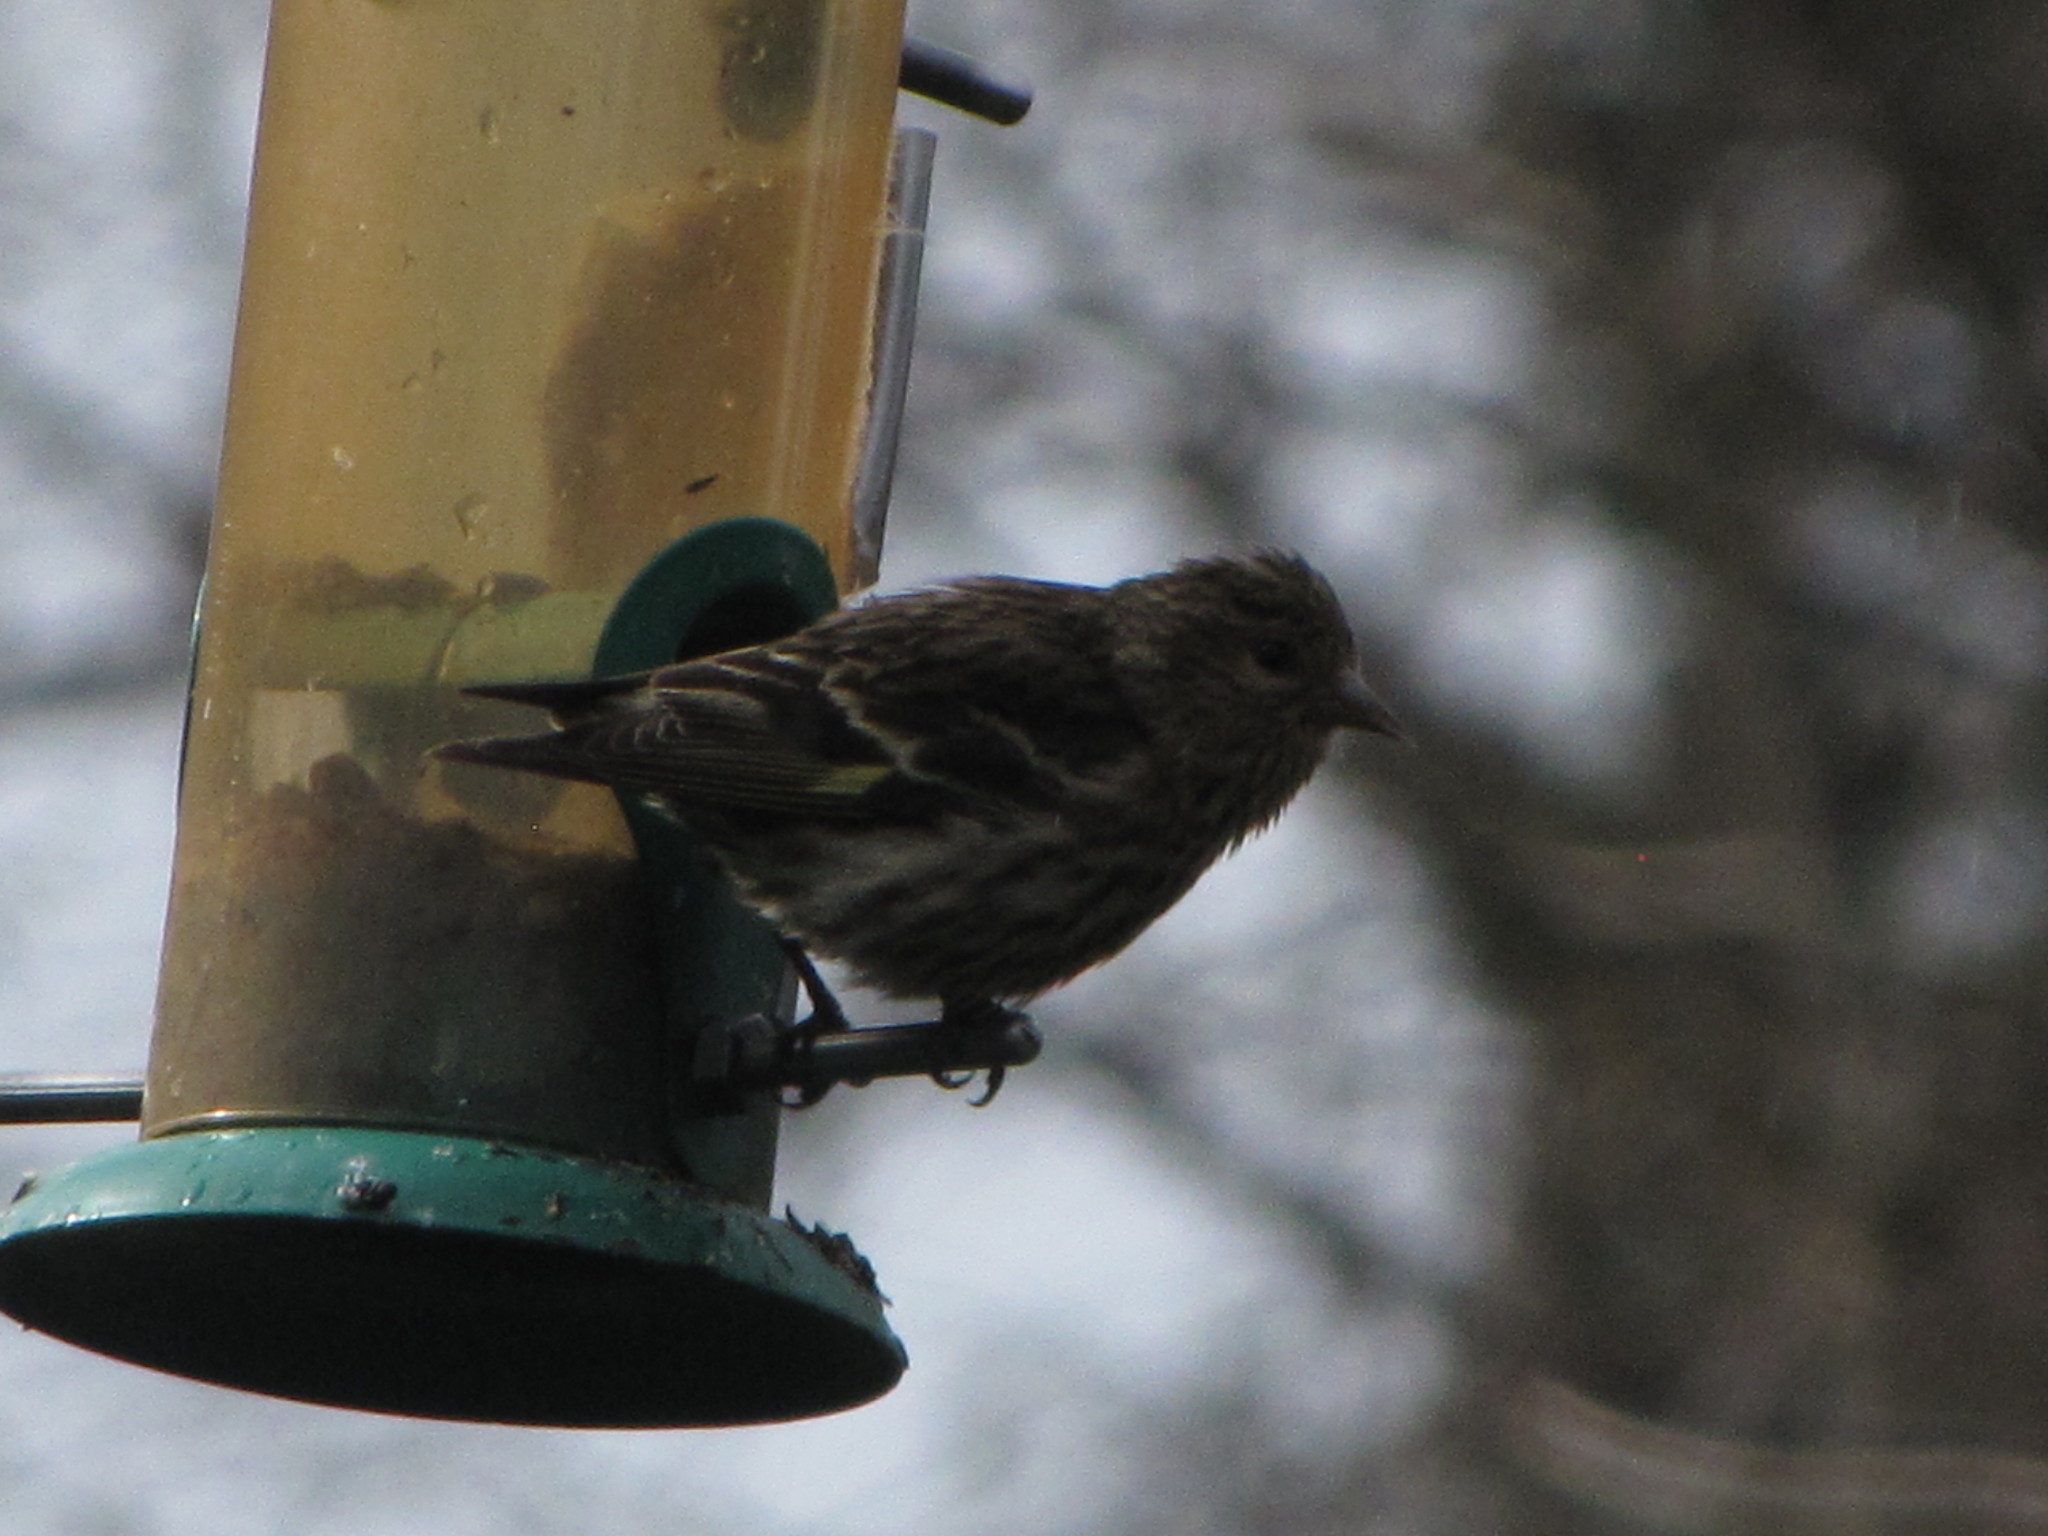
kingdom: Animalia
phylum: Chordata
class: Aves
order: Passeriformes
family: Fringillidae
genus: Spinus
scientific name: Spinus pinus
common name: Pine siskin
